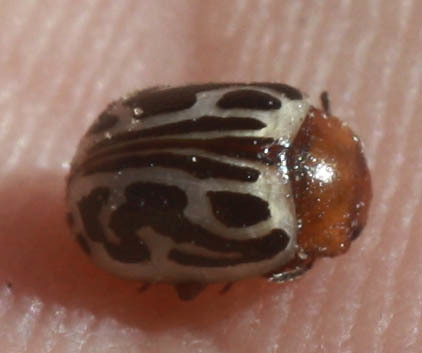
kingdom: Animalia
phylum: Arthropoda
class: Insecta
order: Coleoptera
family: Chrysomelidae
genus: Calligrapha
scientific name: Calligrapha
